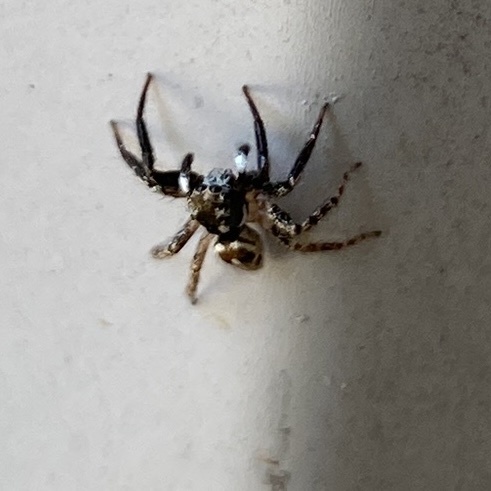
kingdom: Animalia
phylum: Arthropoda
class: Arachnida
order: Araneae
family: Salticidae
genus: Anasaitis
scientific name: Anasaitis canosa
